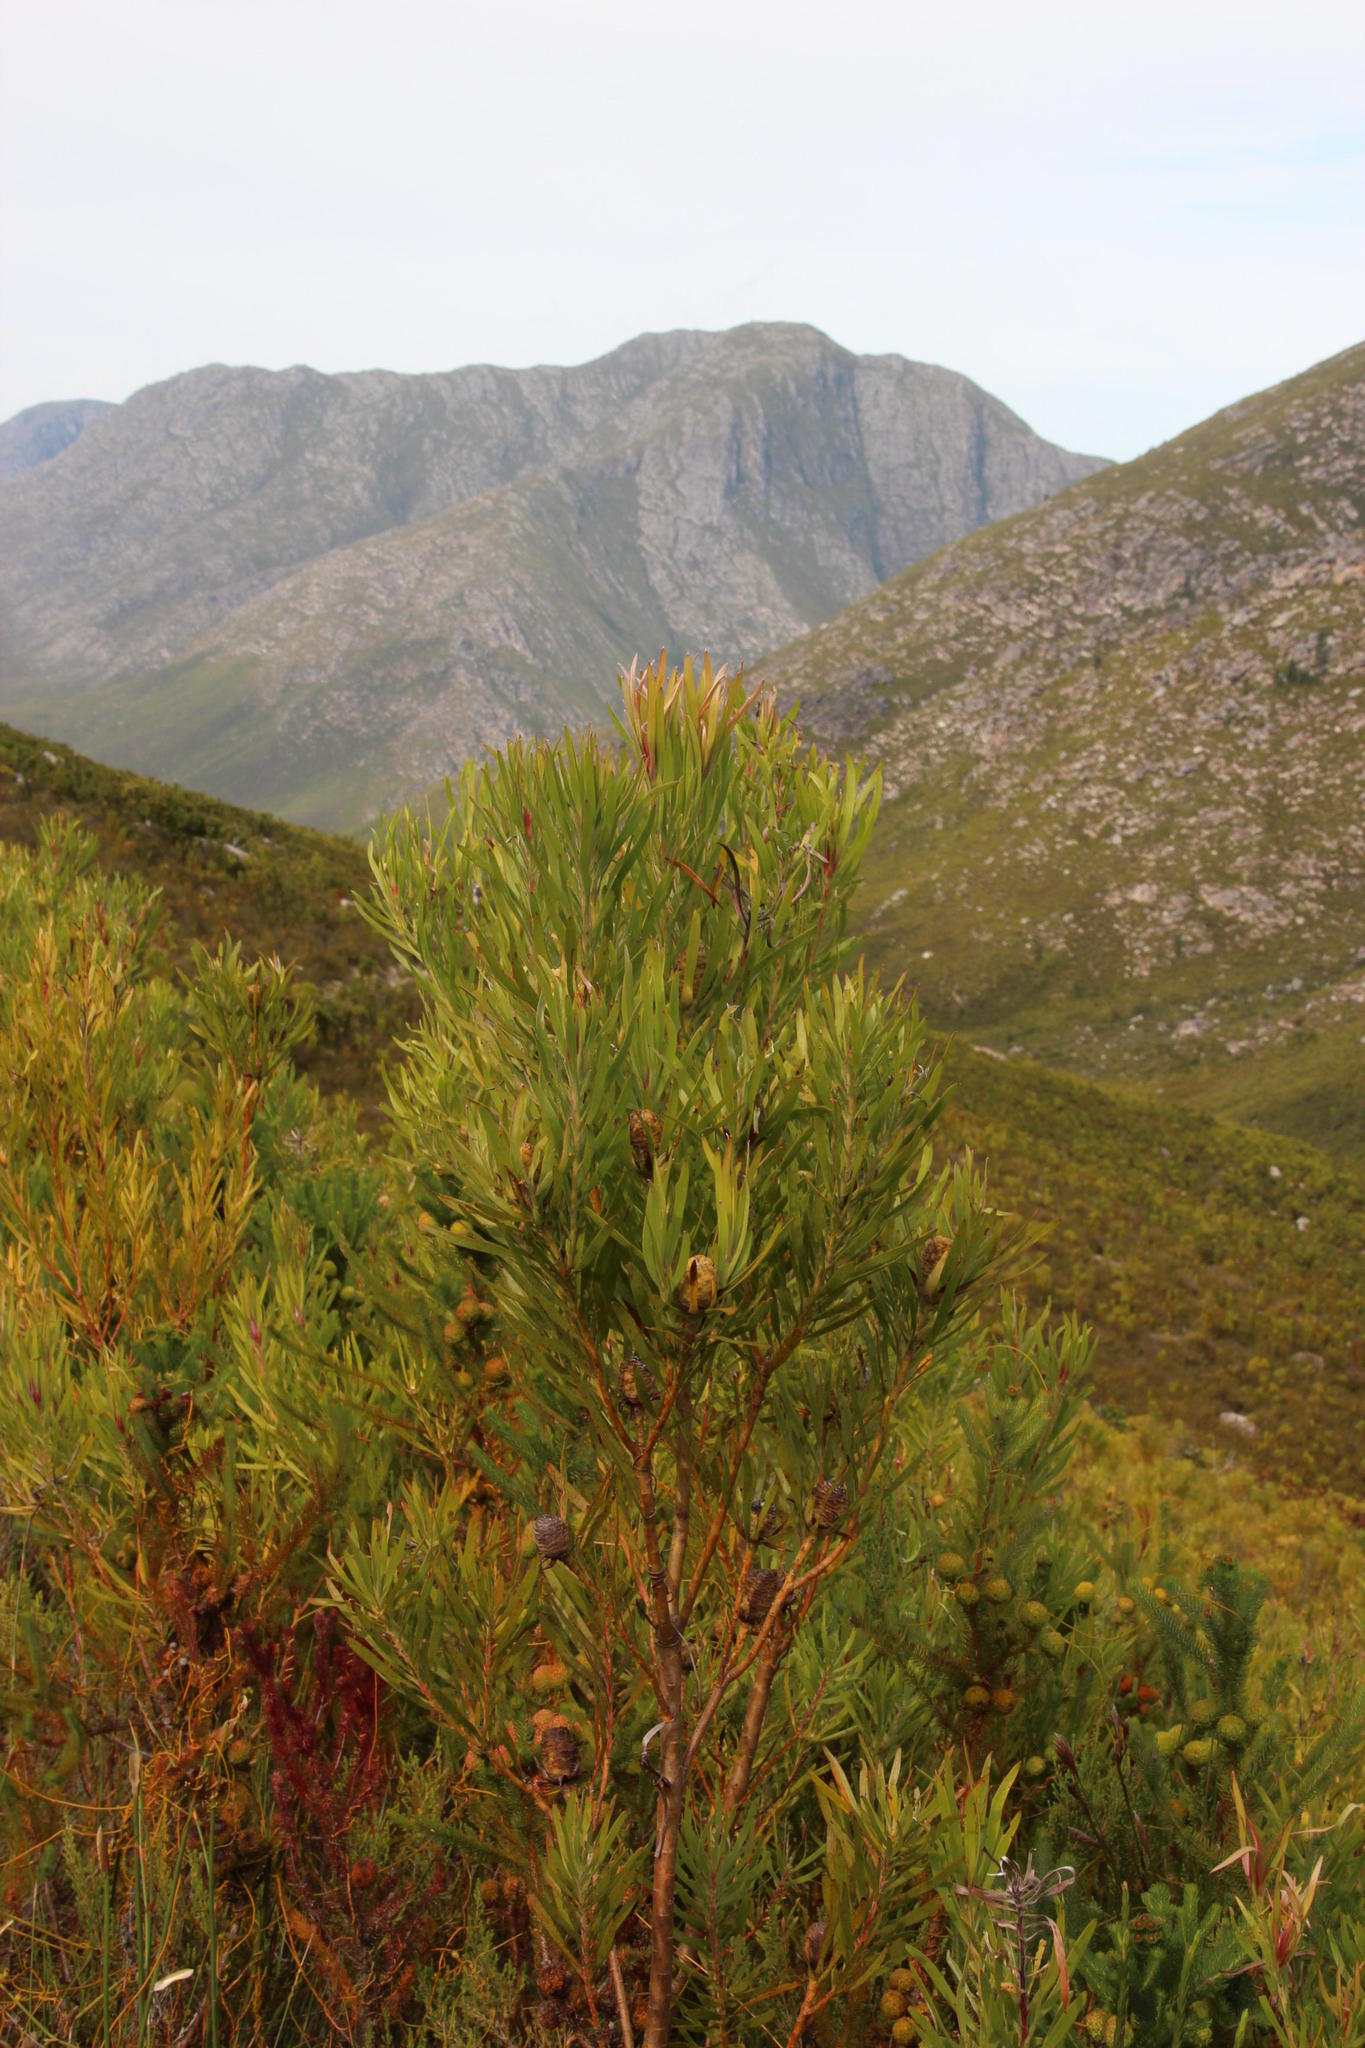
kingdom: Plantae
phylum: Tracheophyta
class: Magnoliopsida
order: Proteales
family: Proteaceae
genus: Leucadendron
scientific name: Leucadendron eucalyptifolium
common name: Gum-leaved conebush
